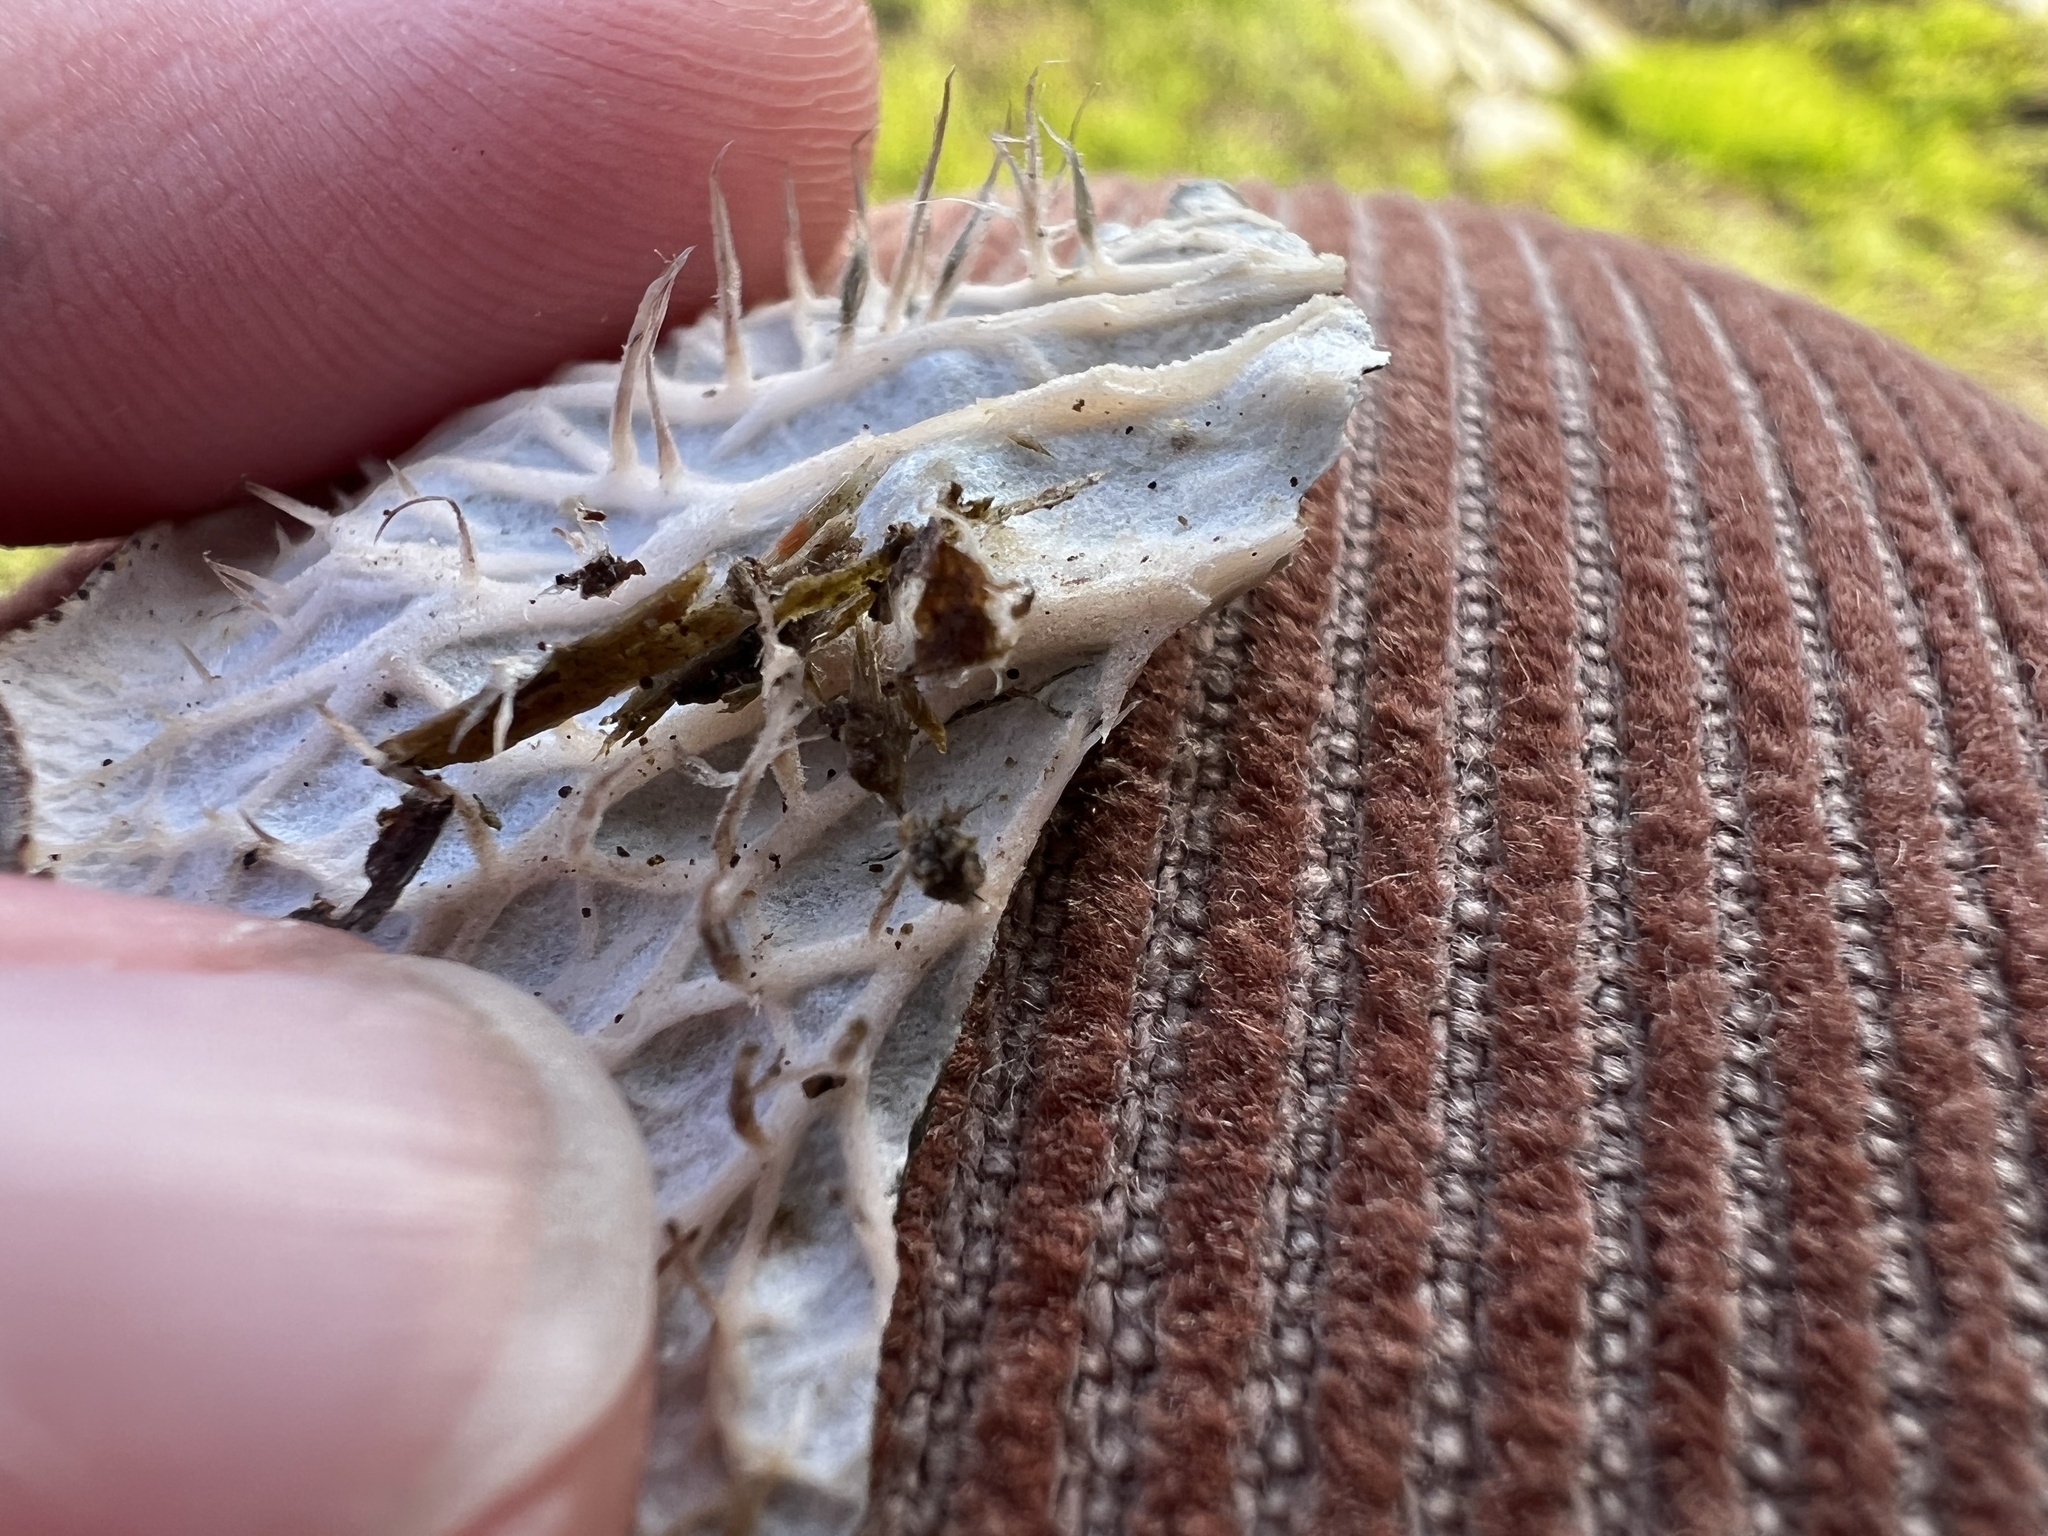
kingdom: Fungi
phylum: Ascomycota
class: Lecanoromycetes
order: Peltigerales
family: Peltigeraceae
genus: Peltigera
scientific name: Peltigera membranacea
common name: Membranous pelt lichen
